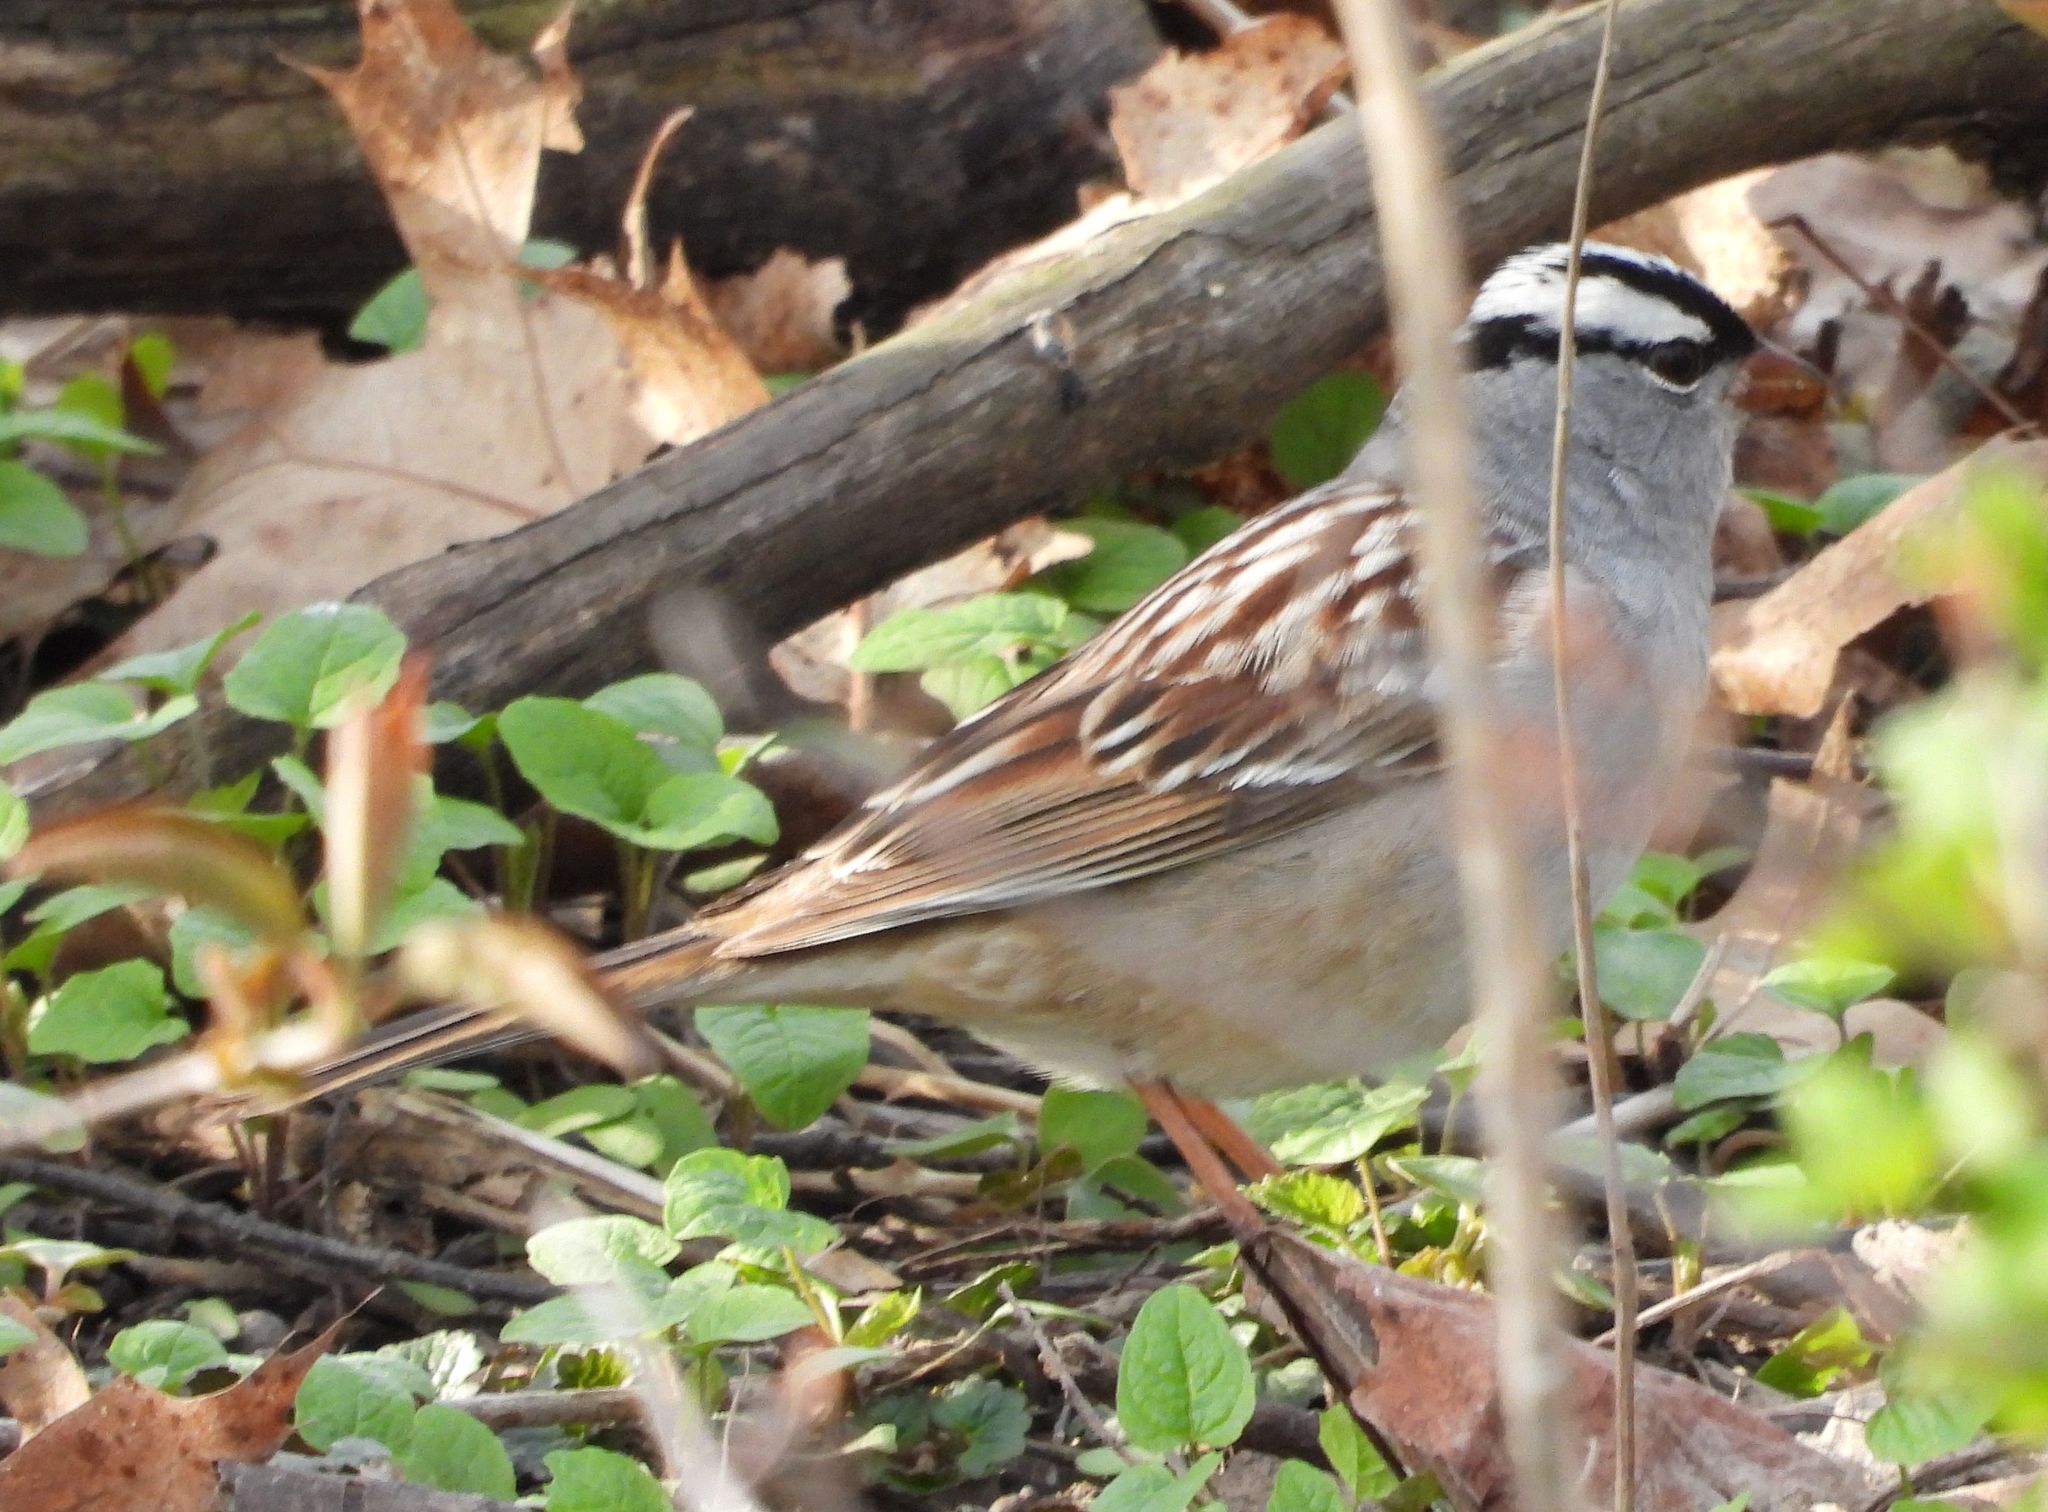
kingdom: Animalia
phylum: Chordata
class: Aves
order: Passeriformes
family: Passerellidae
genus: Zonotrichia
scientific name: Zonotrichia leucophrys
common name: White-crowned sparrow
